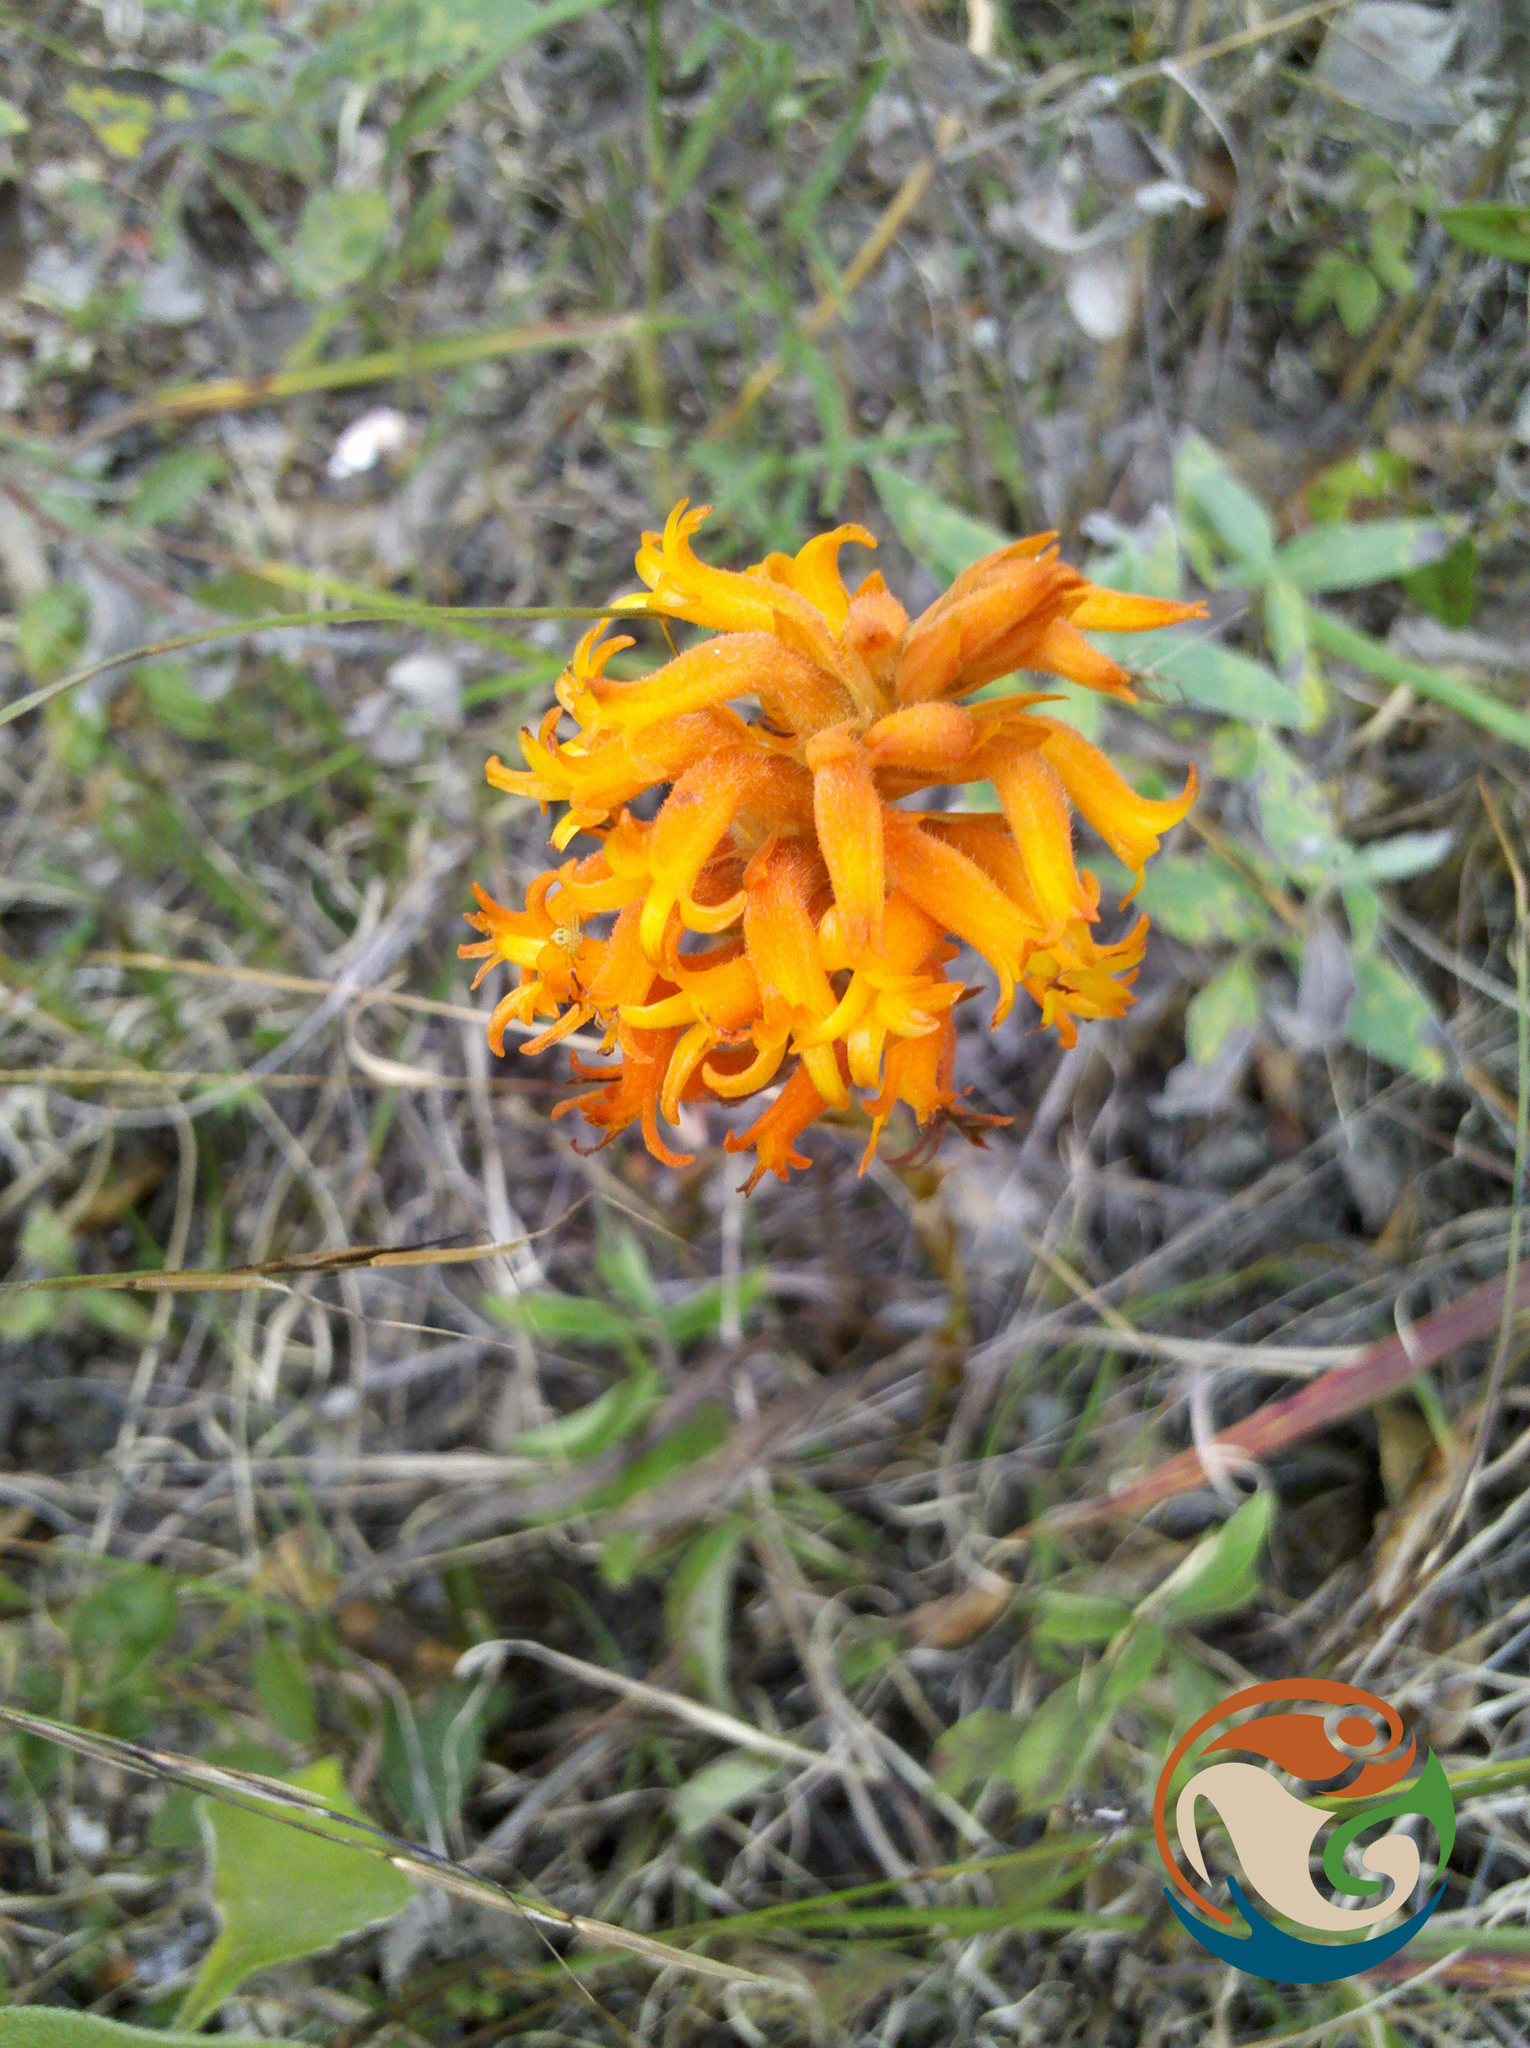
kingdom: Plantae
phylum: Tracheophyta
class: Liliopsida
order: Asparagales
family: Orchidaceae
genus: Dichromanthus
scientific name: Dichromanthus cinnabarinus
